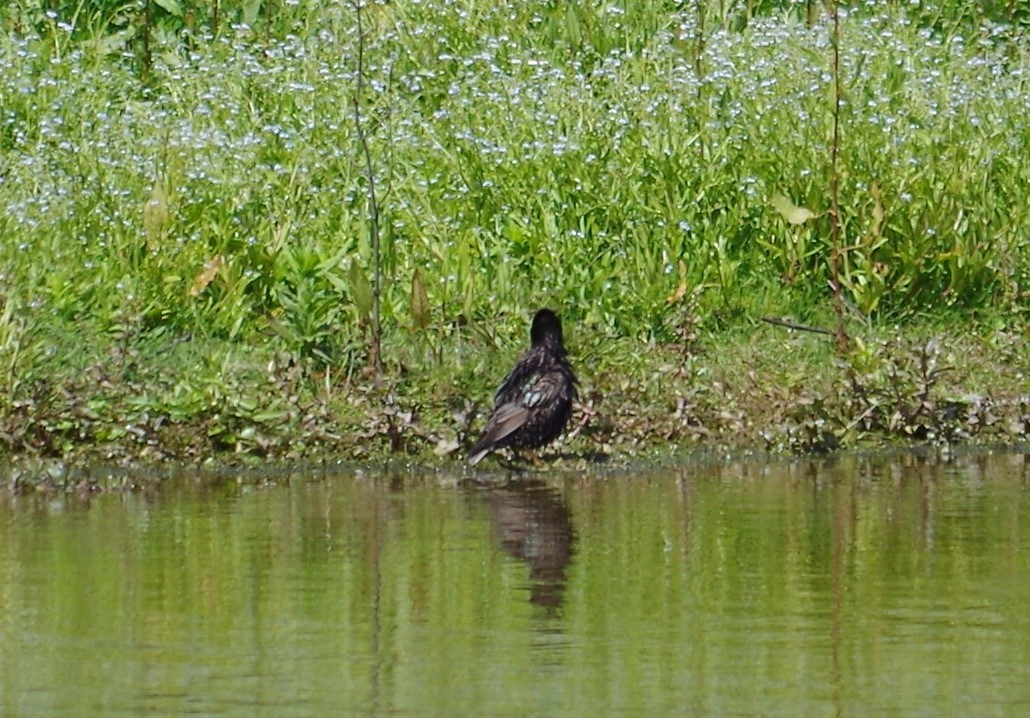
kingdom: Animalia
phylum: Chordata
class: Aves
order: Passeriformes
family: Sturnidae
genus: Sturnus
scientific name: Sturnus vulgaris
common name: Common starling
